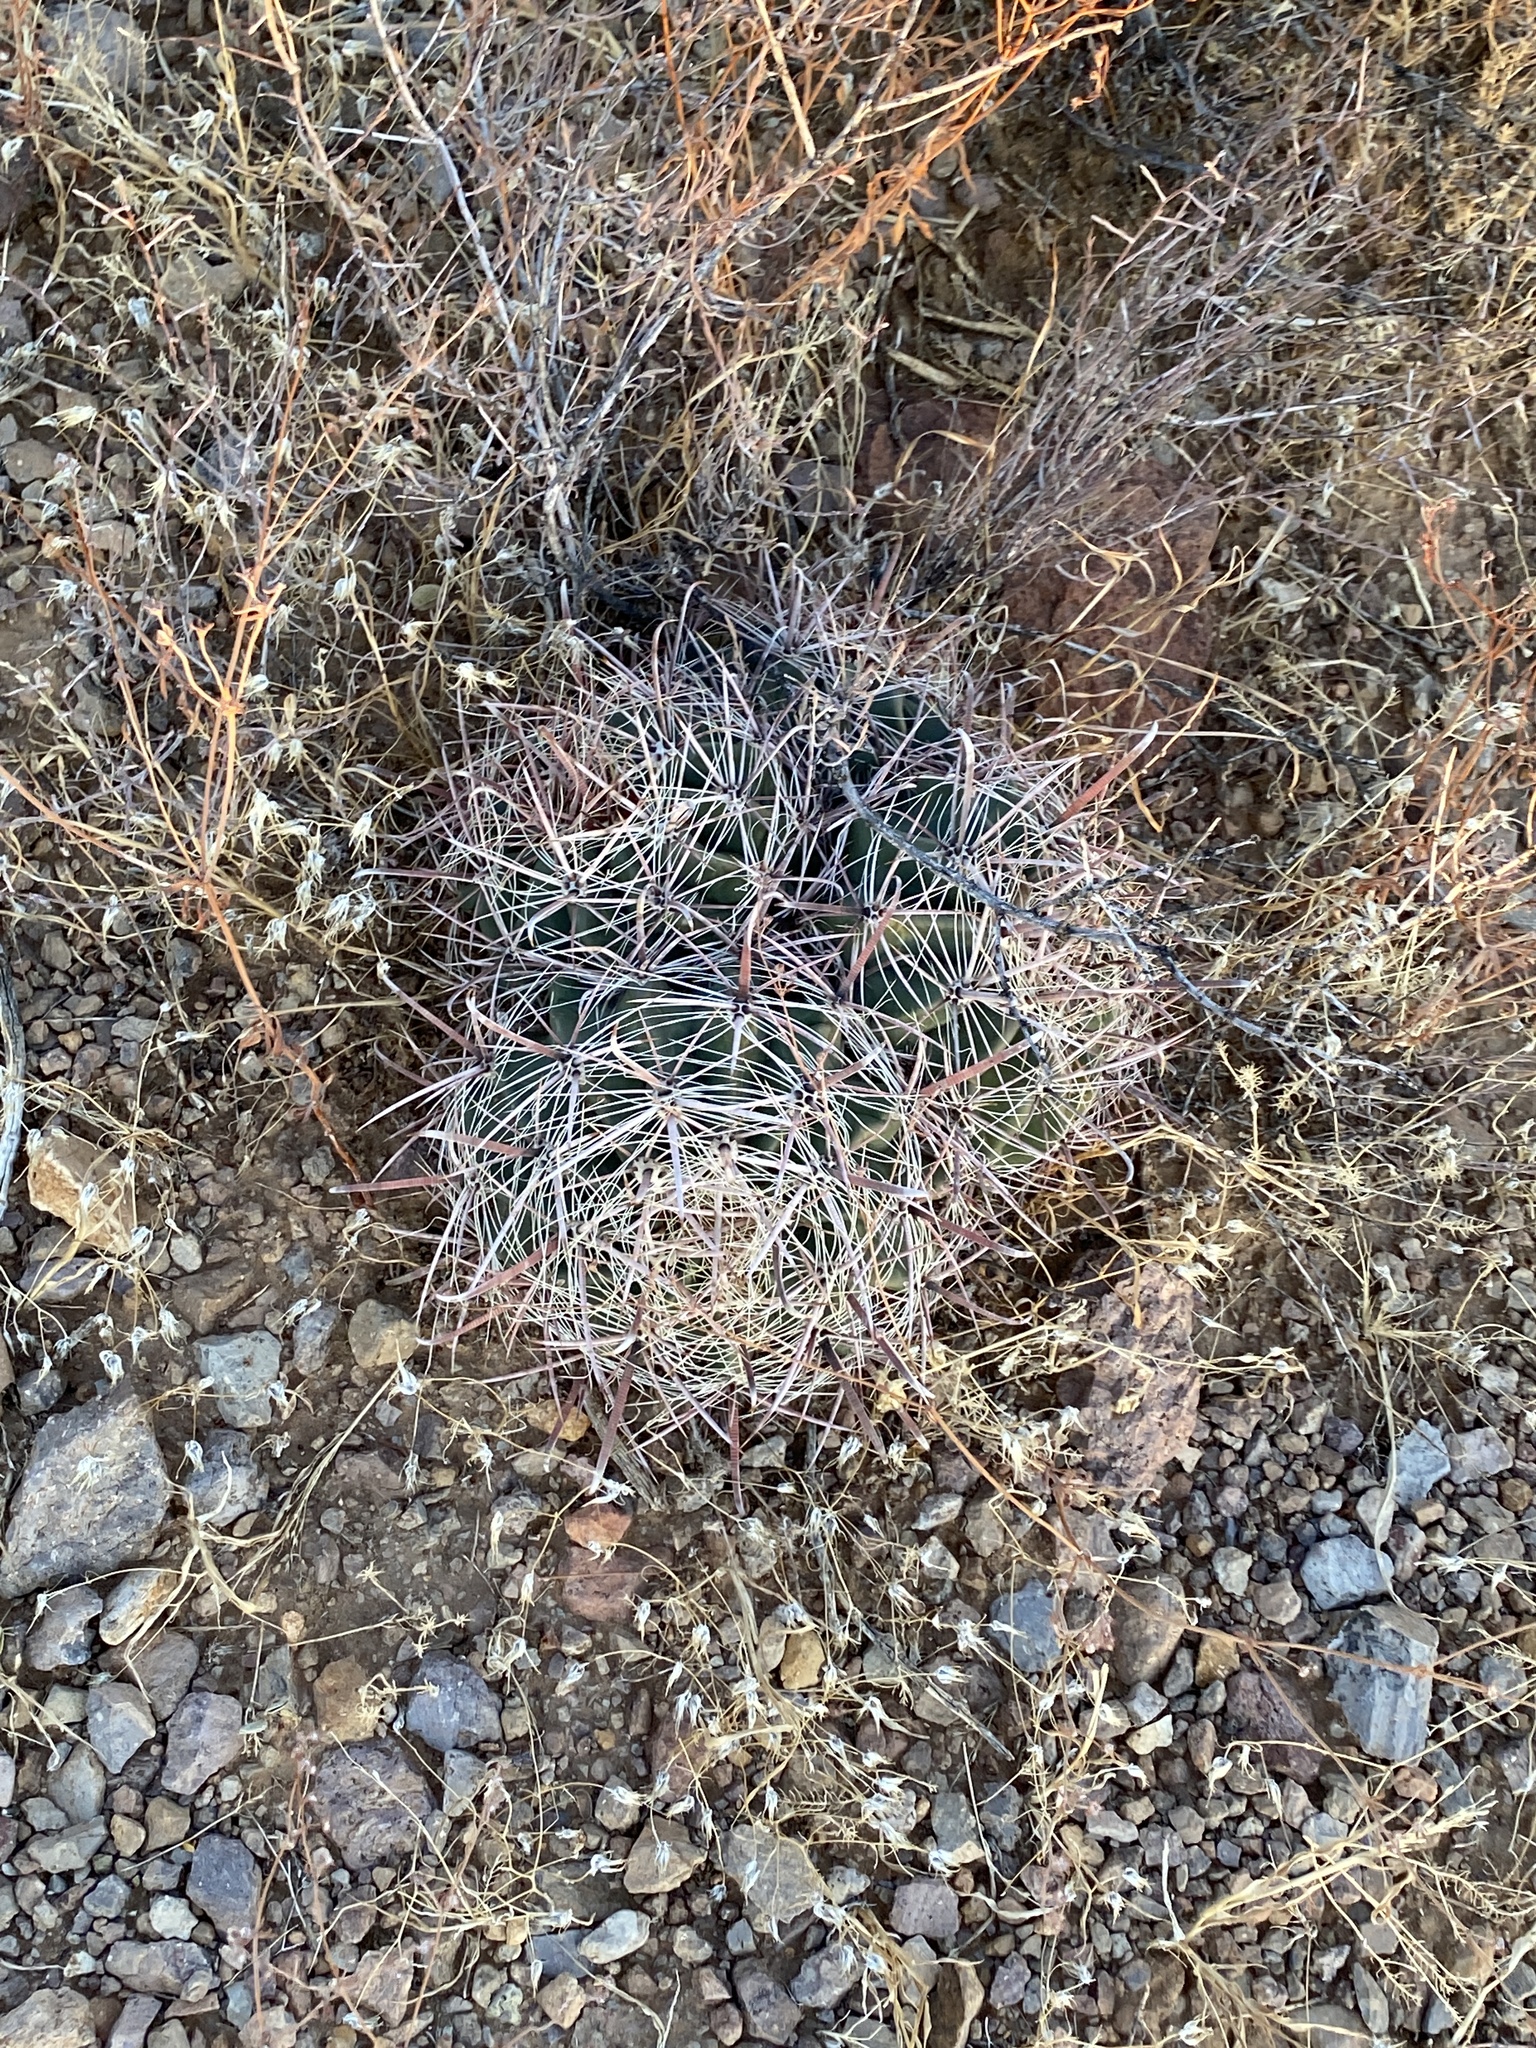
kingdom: Plantae
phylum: Tracheophyta
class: Magnoliopsida
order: Caryophyllales
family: Cactaceae
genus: Ferocactus
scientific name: Ferocactus wislizeni
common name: Candy barrel cactus
